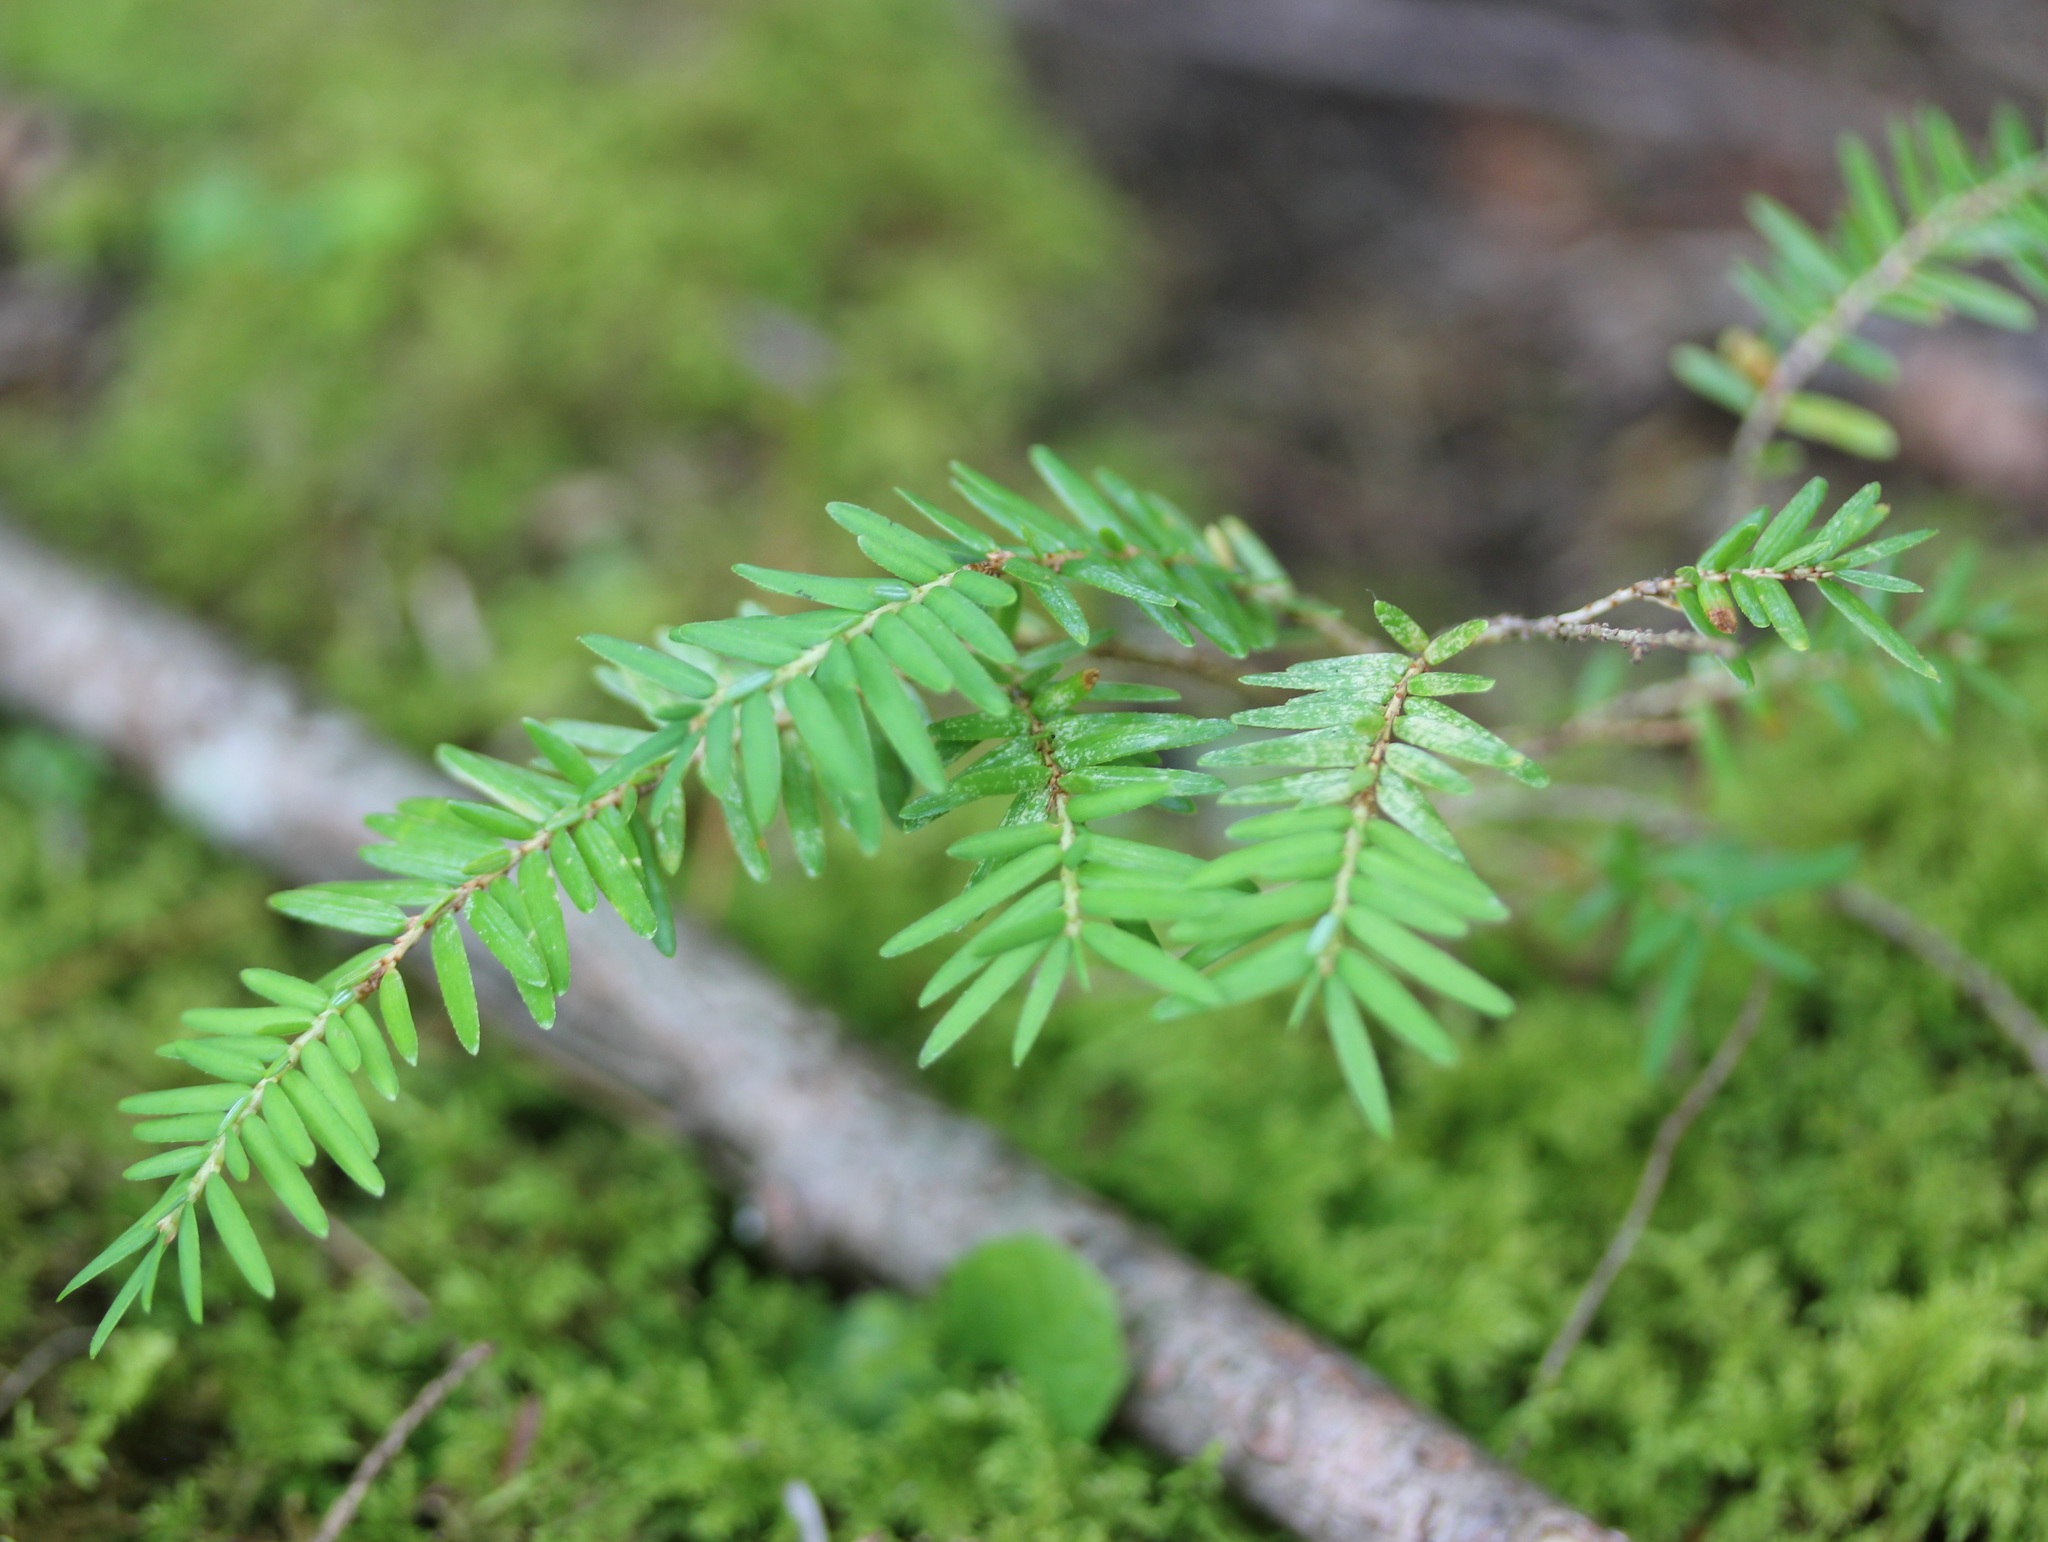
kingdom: Plantae
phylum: Tracheophyta
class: Pinopsida
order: Pinales
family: Pinaceae
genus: Tsuga
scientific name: Tsuga canadensis
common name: Eastern hemlock
